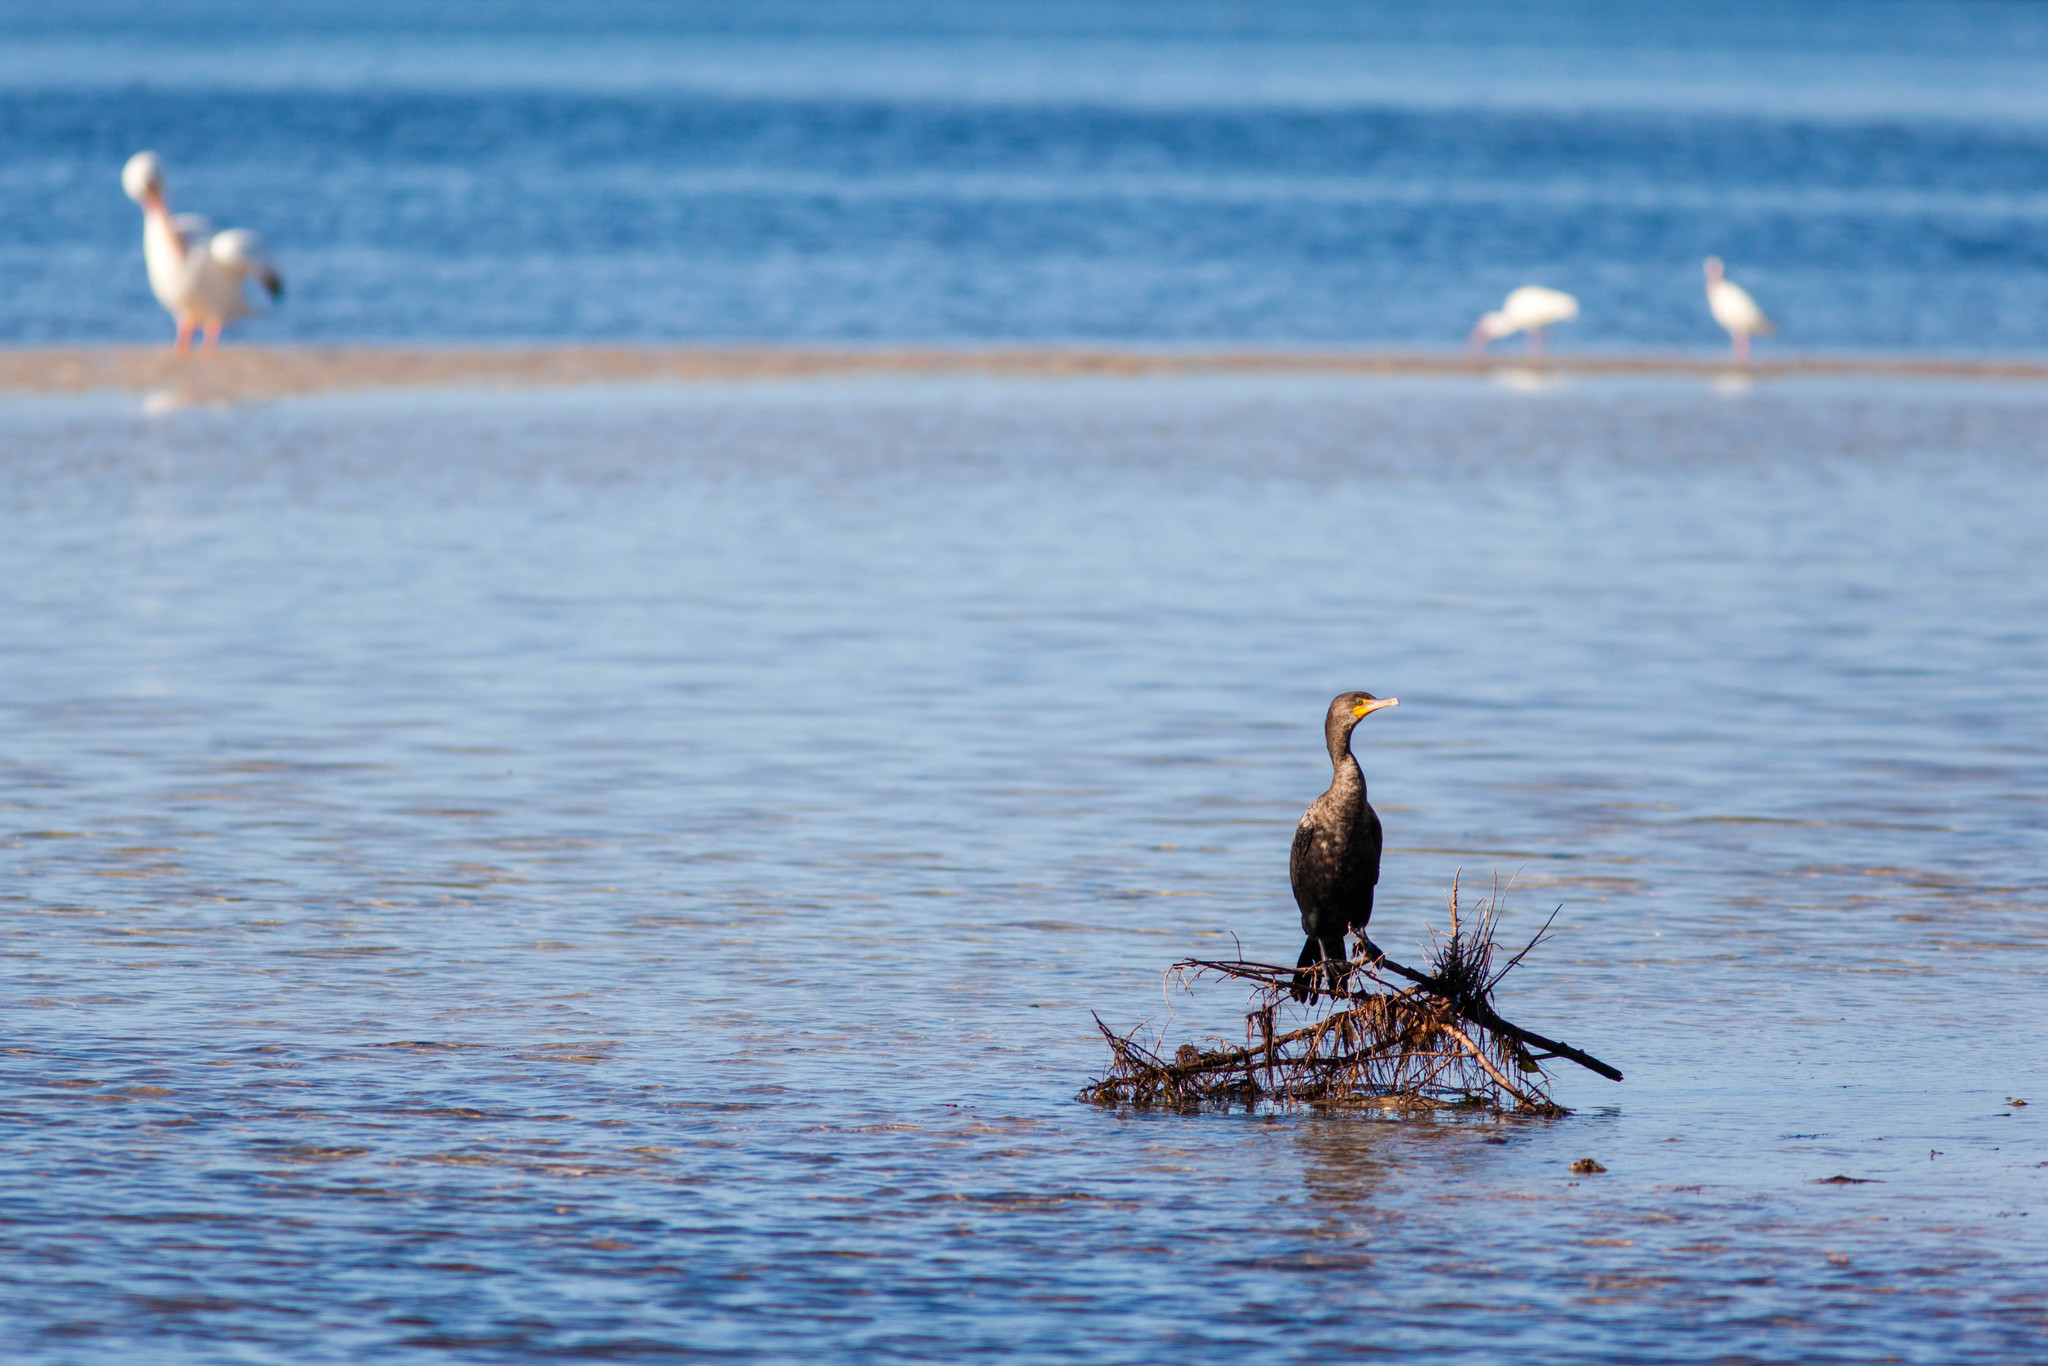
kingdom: Animalia
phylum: Chordata
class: Aves
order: Suliformes
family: Phalacrocoracidae
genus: Phalacrocorax
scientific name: Phalacrocorax auritus
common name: Double-crested cormorant
